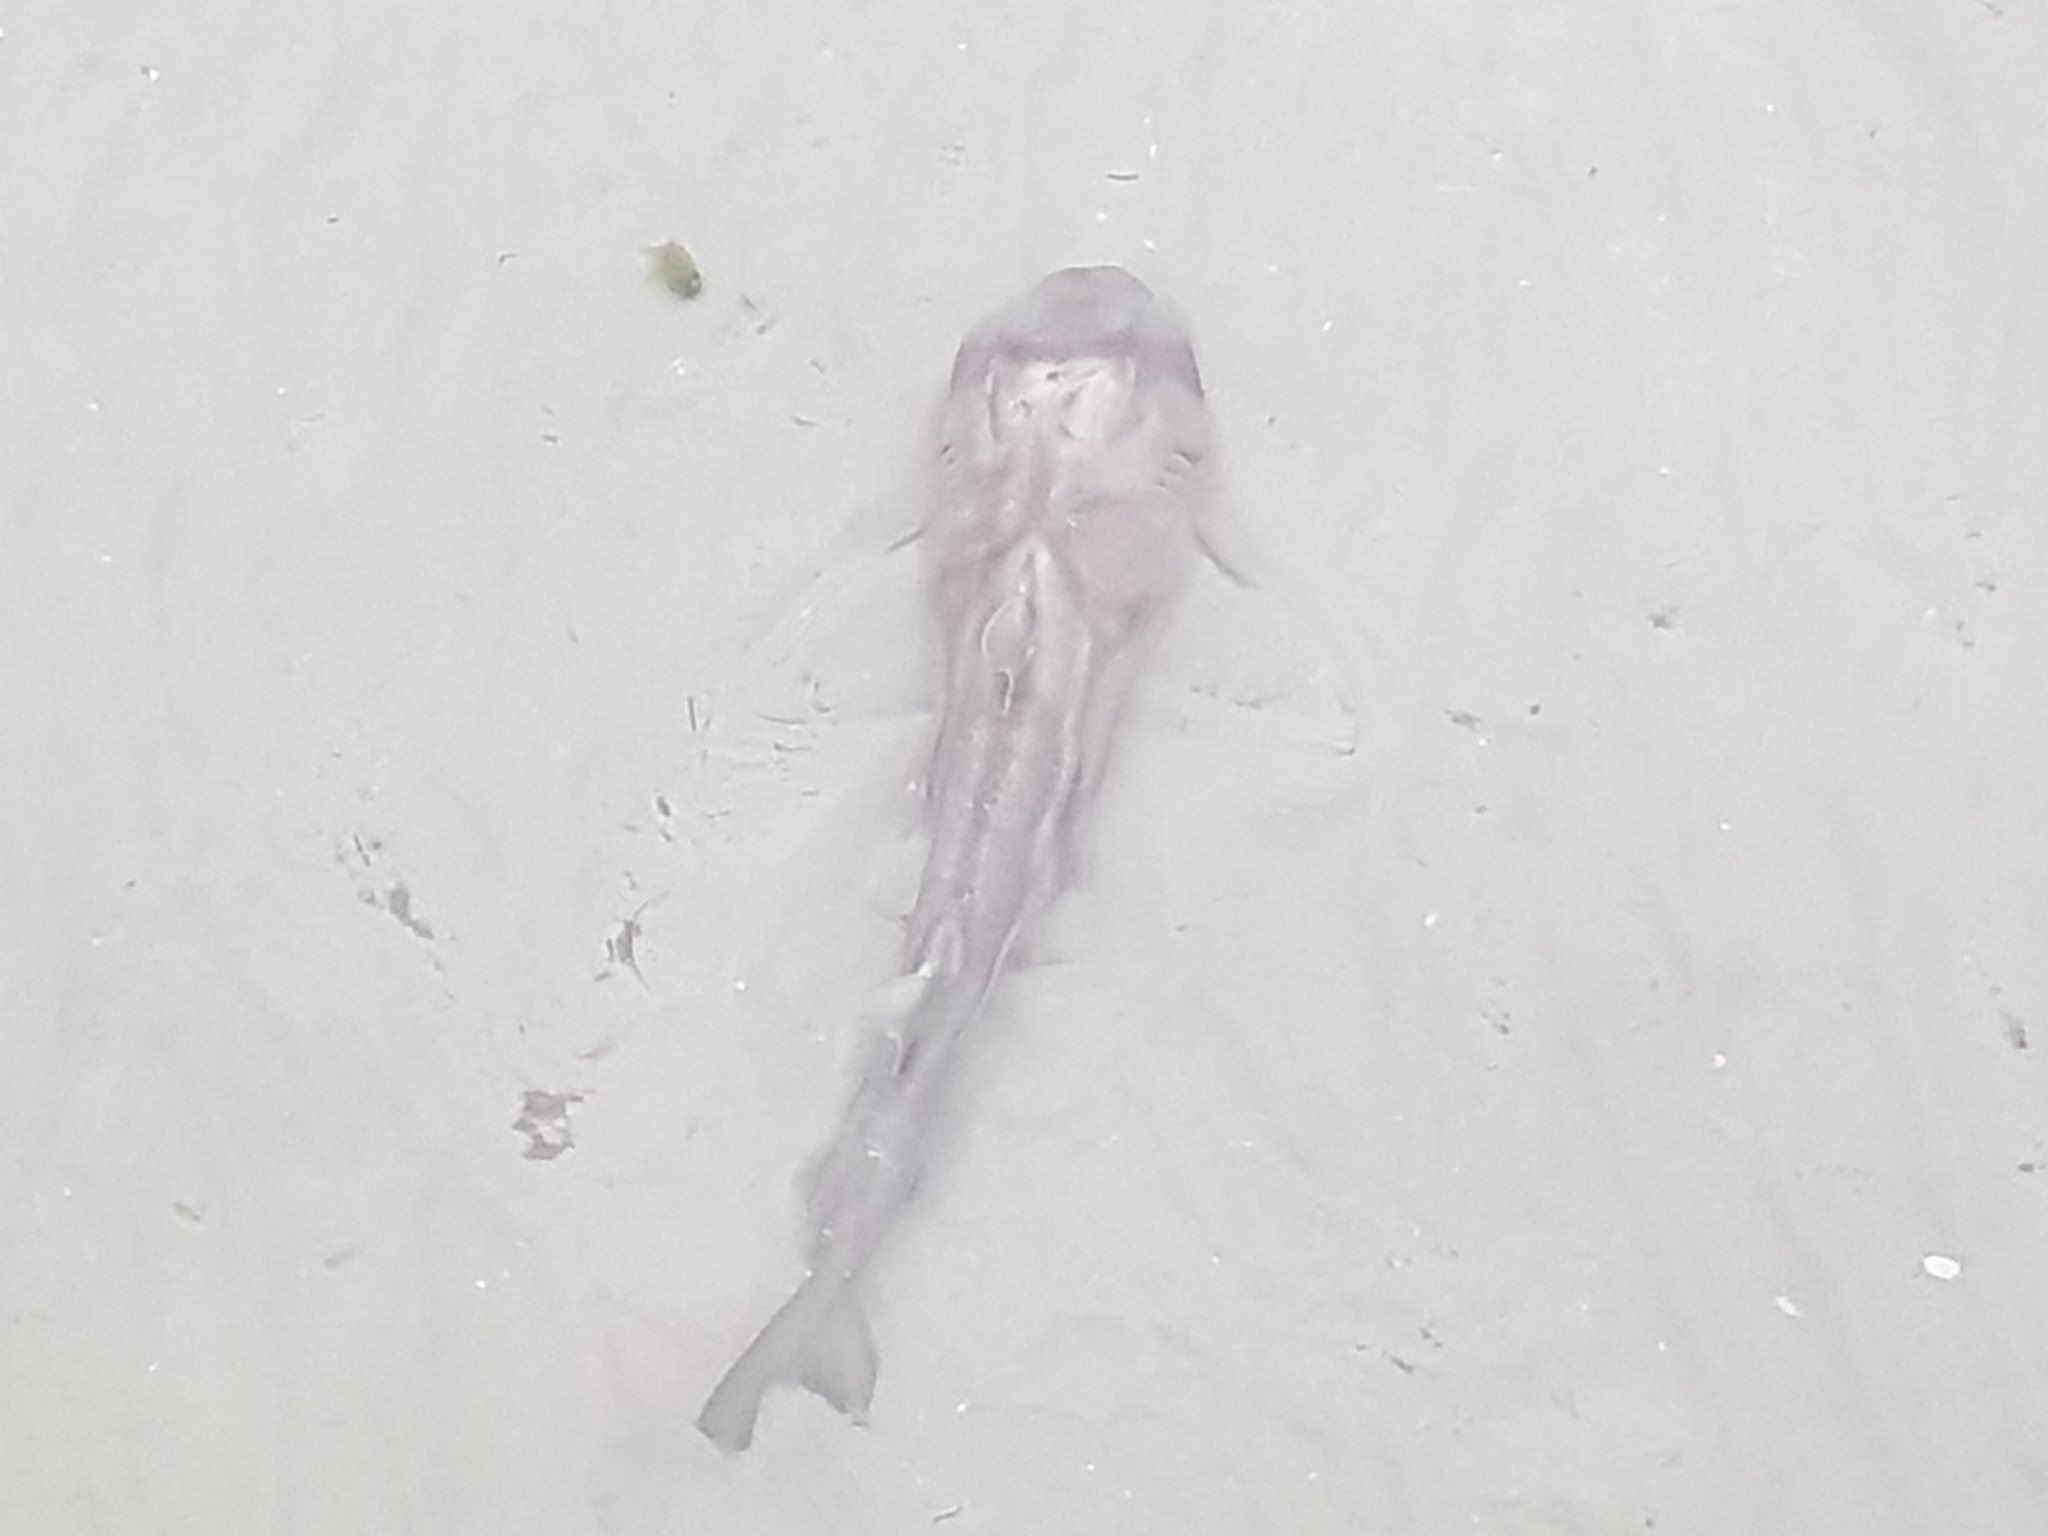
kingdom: Animalia
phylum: Chordata
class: Elasmobranchii
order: Heterodontiformes
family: Heterodontidae
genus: Heterodontus
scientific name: Heterodontus portusjacksoni
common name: Port jackson shark
